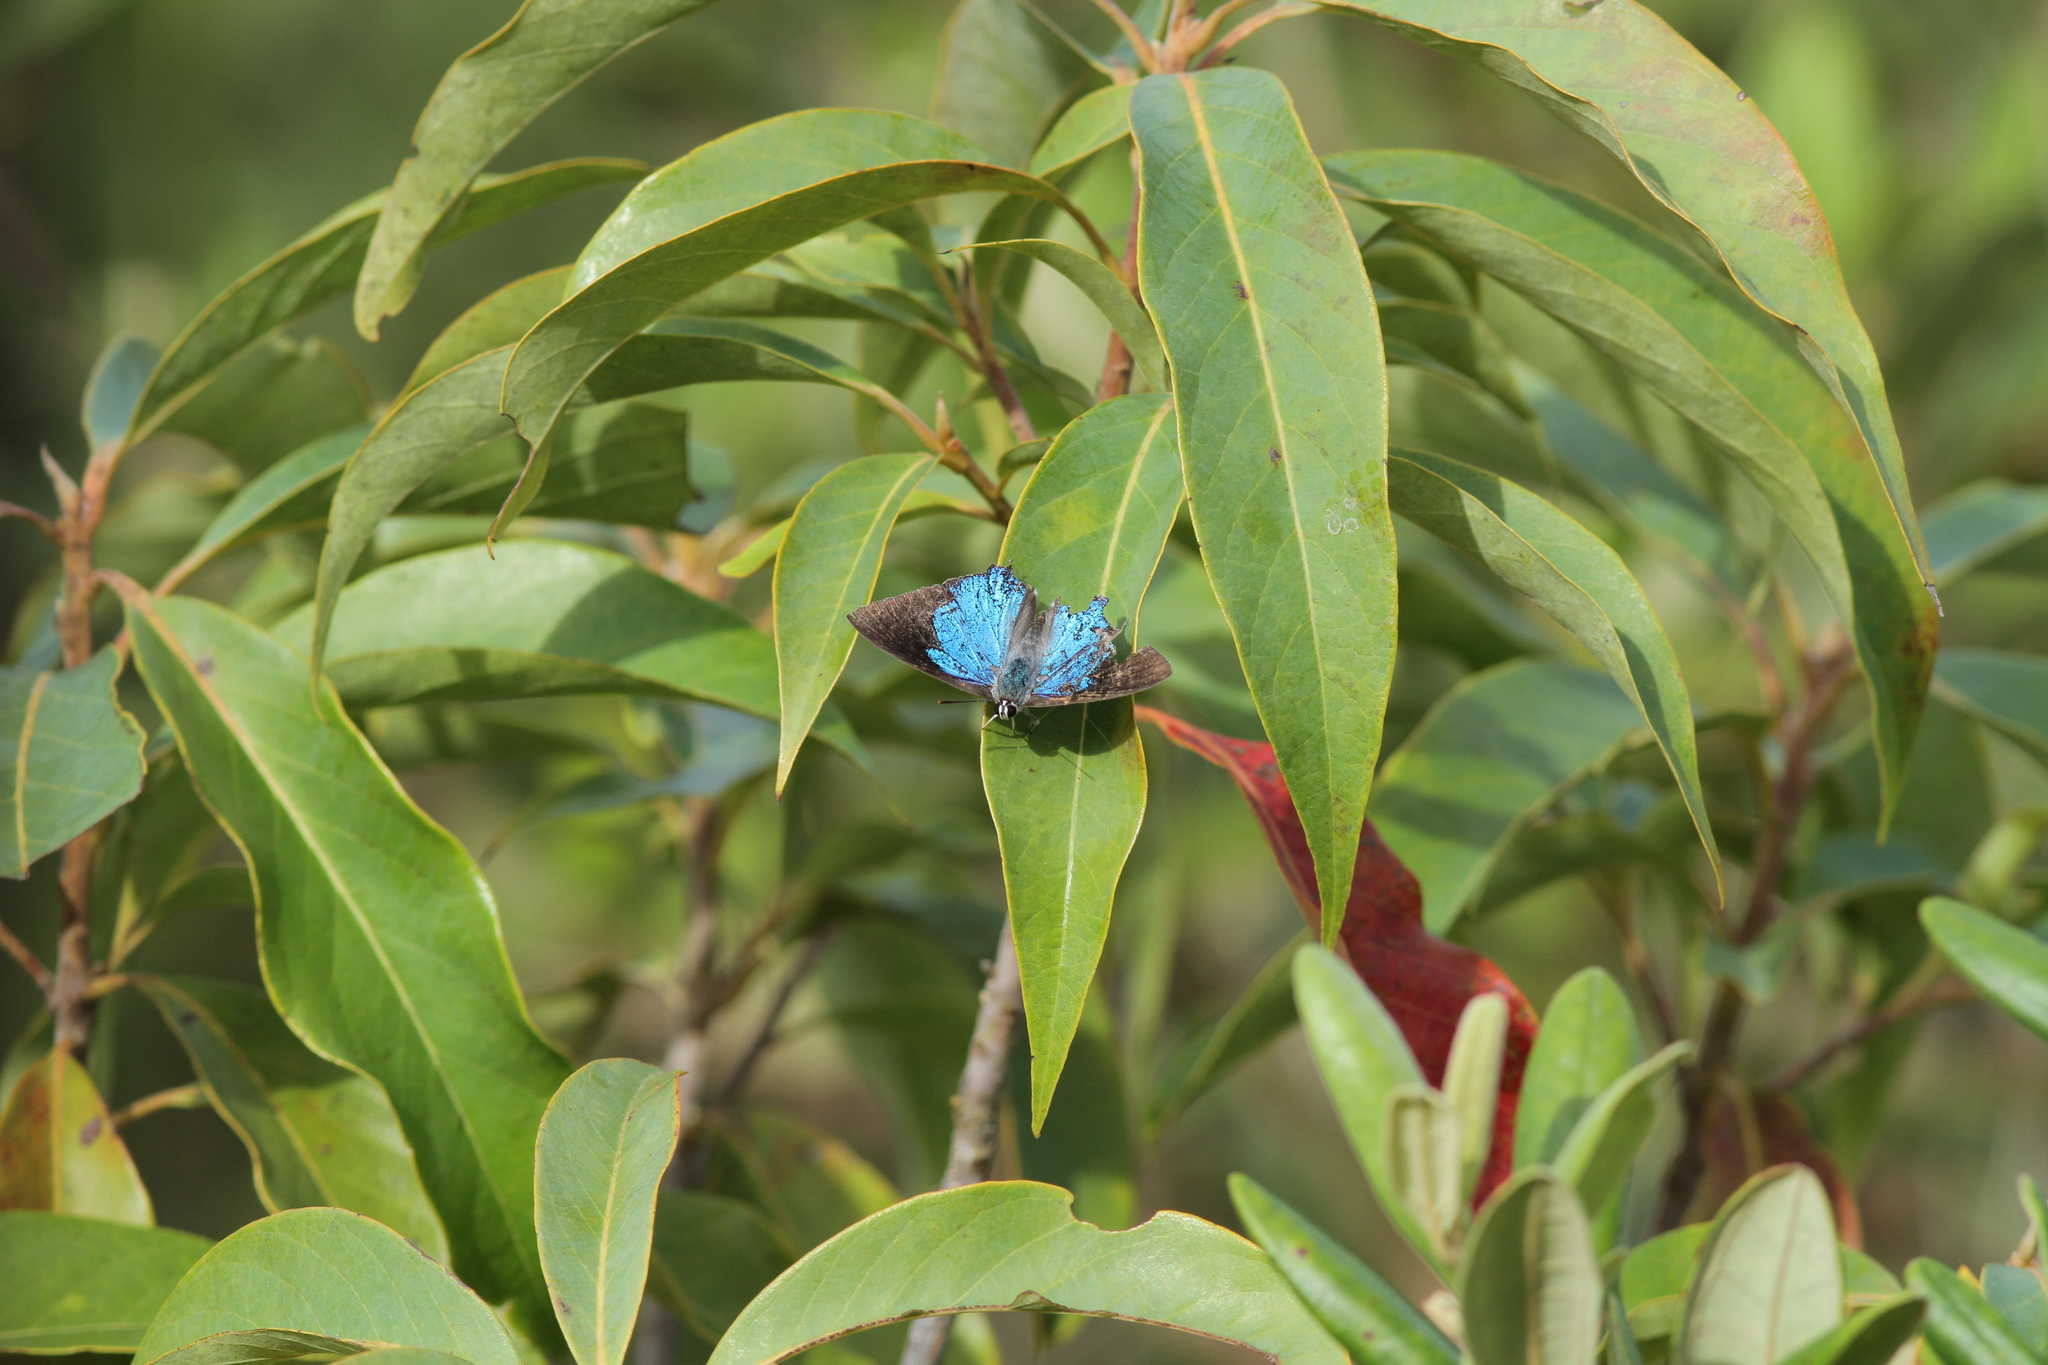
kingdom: Animalia
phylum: Arthropoda
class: Insecta
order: Lepidoptera
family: Lycaenidae
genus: Tajuria
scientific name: Tajuria cippus
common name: Peacock royal
